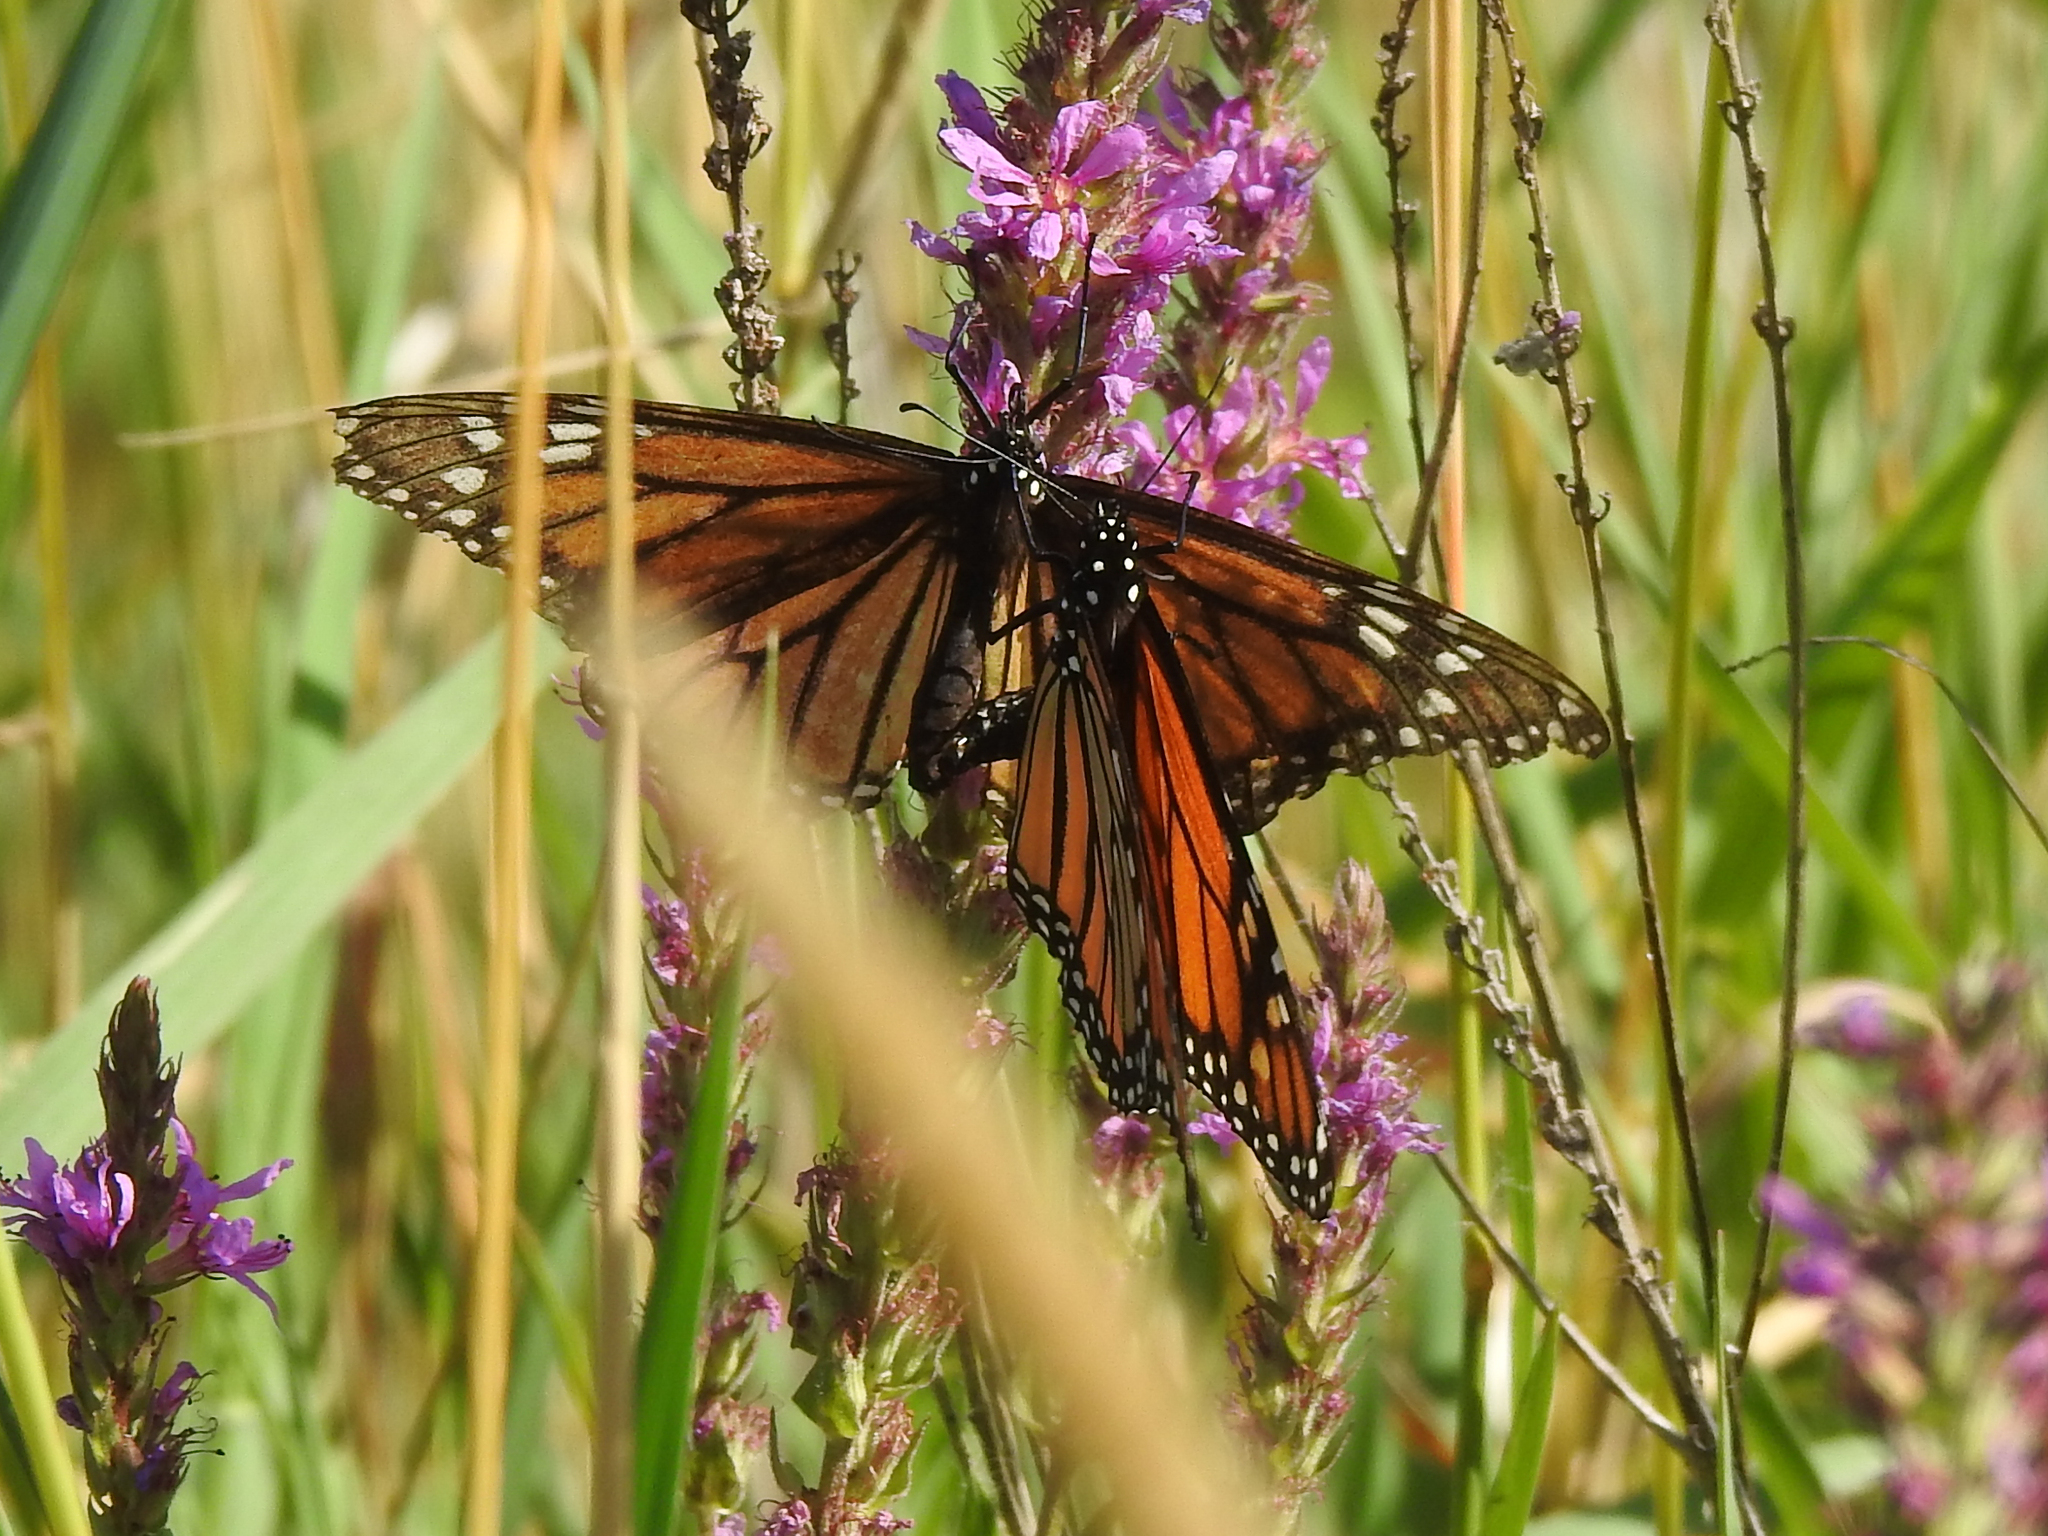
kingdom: Animalia
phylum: Arthropoda
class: Insecta
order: Lepidoptera
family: Nymphalidae
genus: Danaus
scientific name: Danaus plexippus
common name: Monarch
